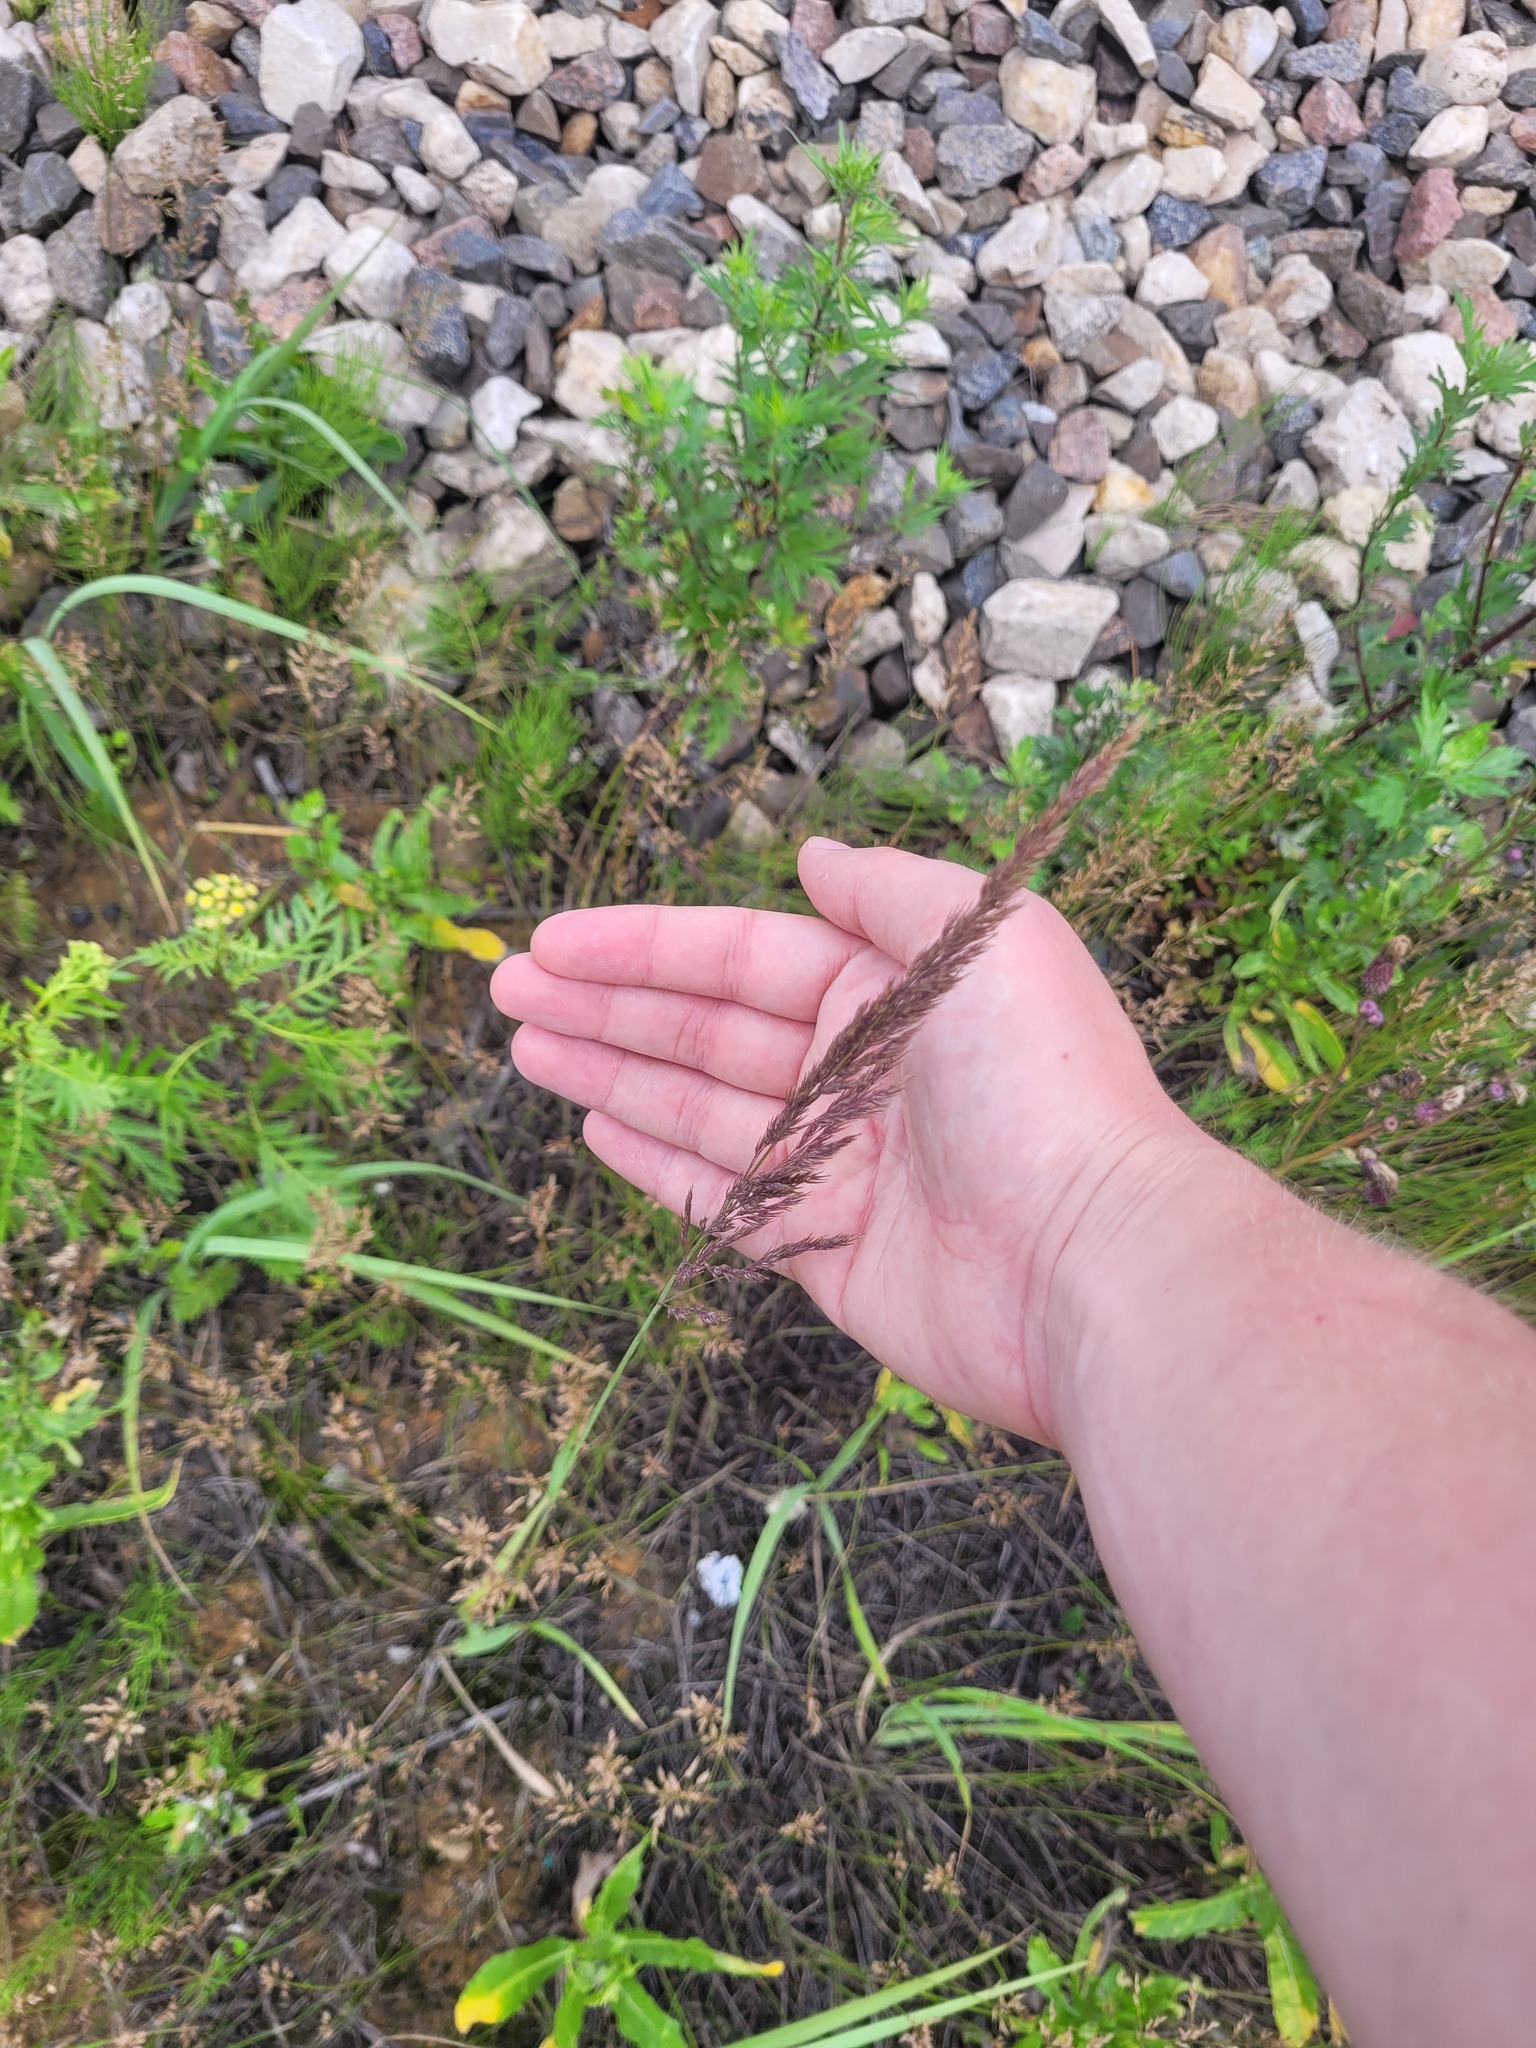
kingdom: Plantae
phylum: Tracheophyta
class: Liliopsida
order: Poales
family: Poaceae
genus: Calamagrostis
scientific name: Calamagrostis epigejos
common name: Wood small-reed
